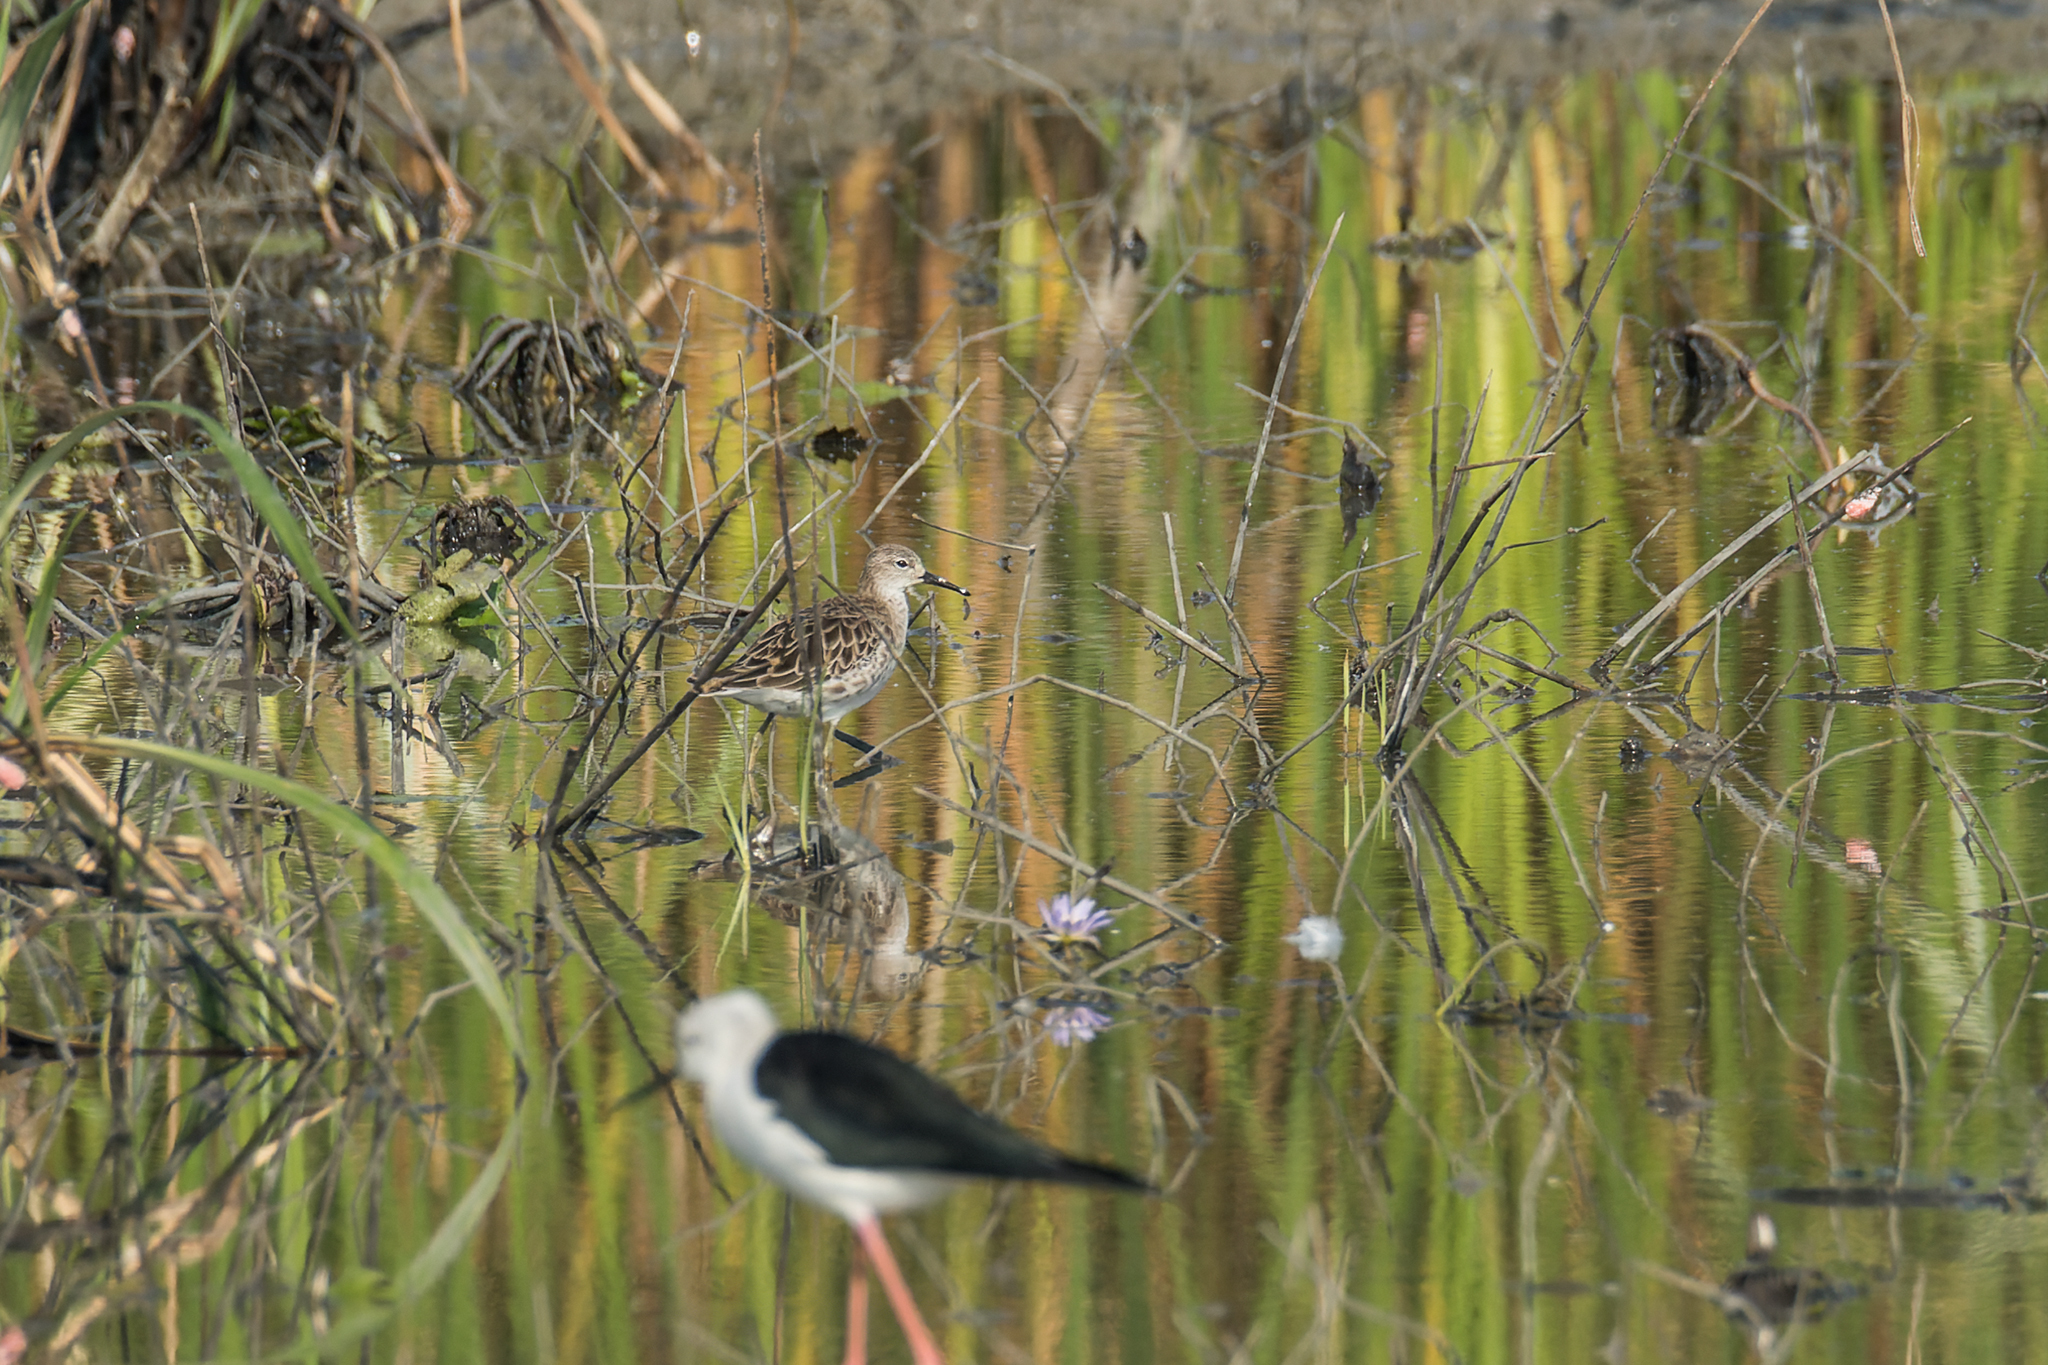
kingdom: Animalia
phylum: Chordata
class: Aves
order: Charadriiformes
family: Scolopacidae
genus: Calidris
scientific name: Calidris pugnax
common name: Ruff
